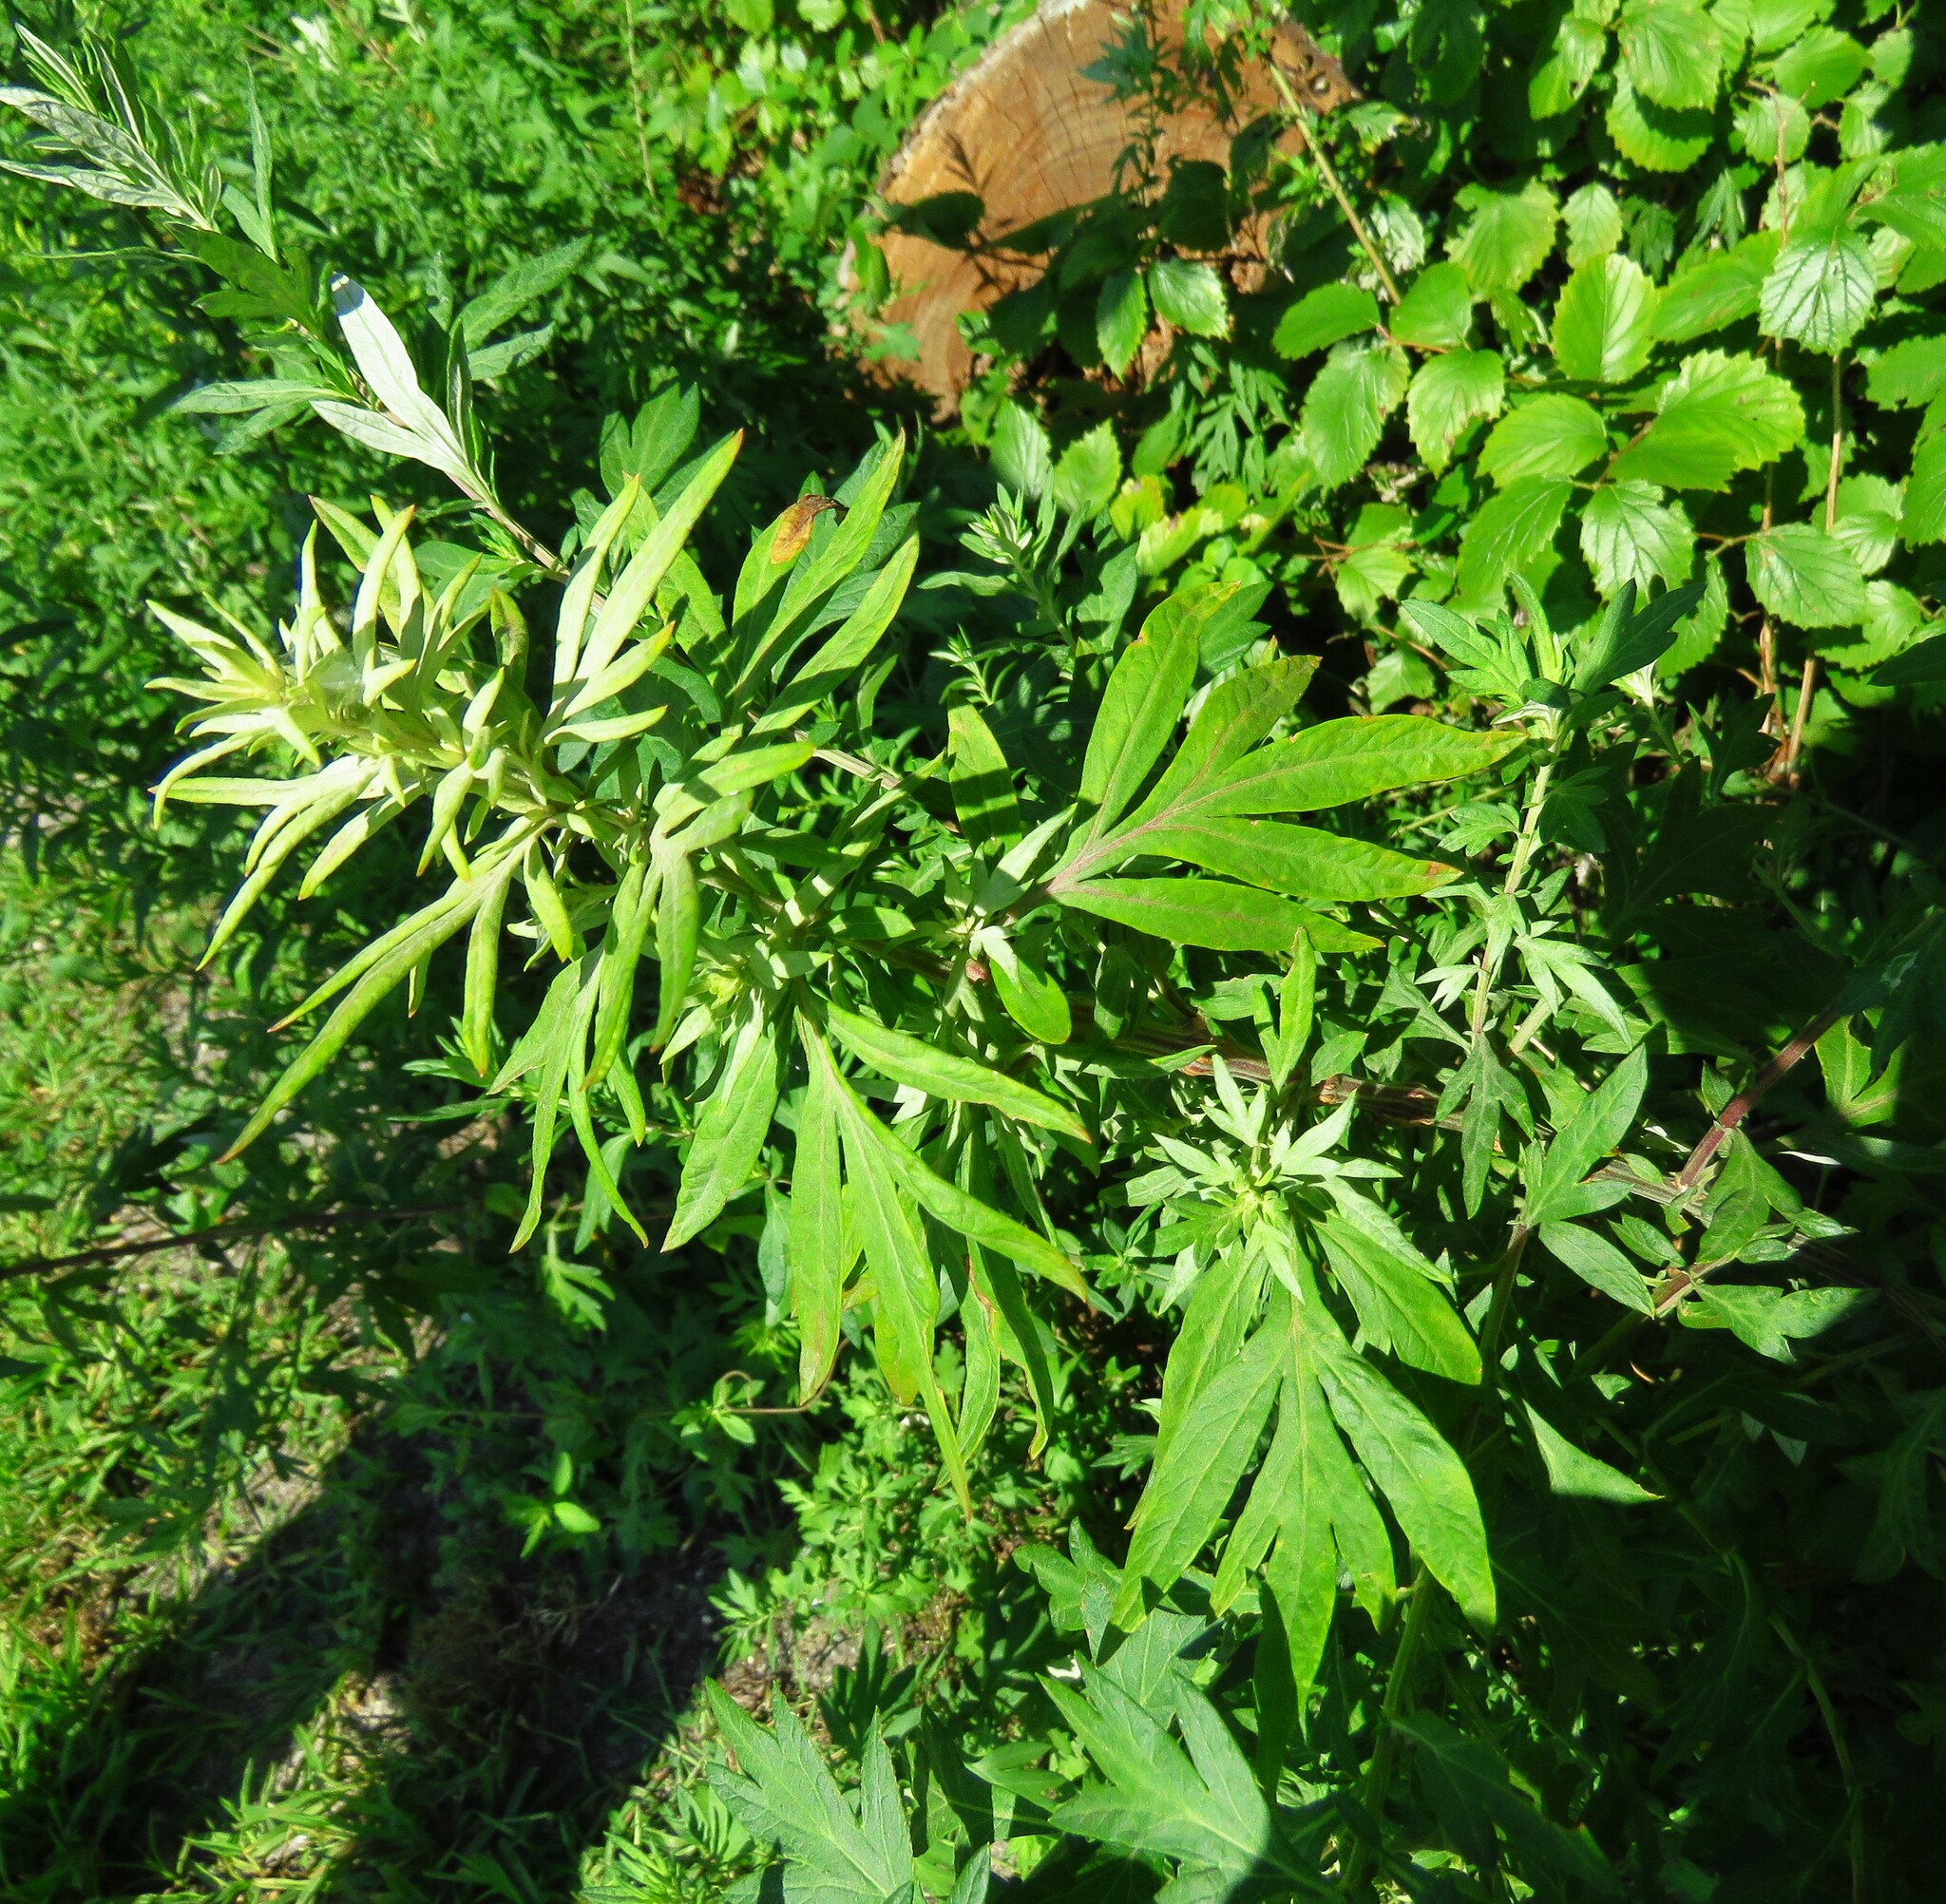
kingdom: Plantae
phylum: Tracheophyta
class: Magnoliopsida
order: Asterales
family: Asteraceae
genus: Artemisia
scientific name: Artemisia vulgaris
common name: Mugwort
